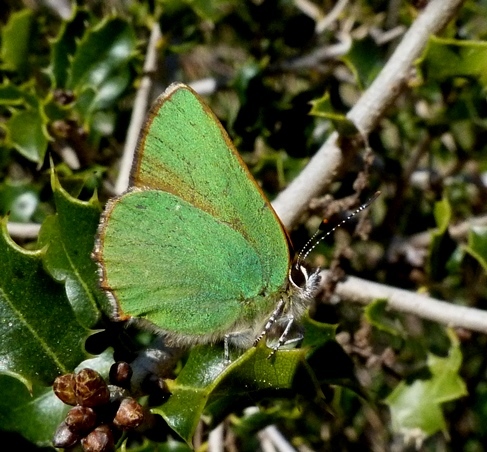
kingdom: Animalia
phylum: Arthropoda
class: Insecta
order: Lepidoptera
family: Lycaenidae
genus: Callophrys
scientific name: Callophrys rubi
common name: Green hairstreak
